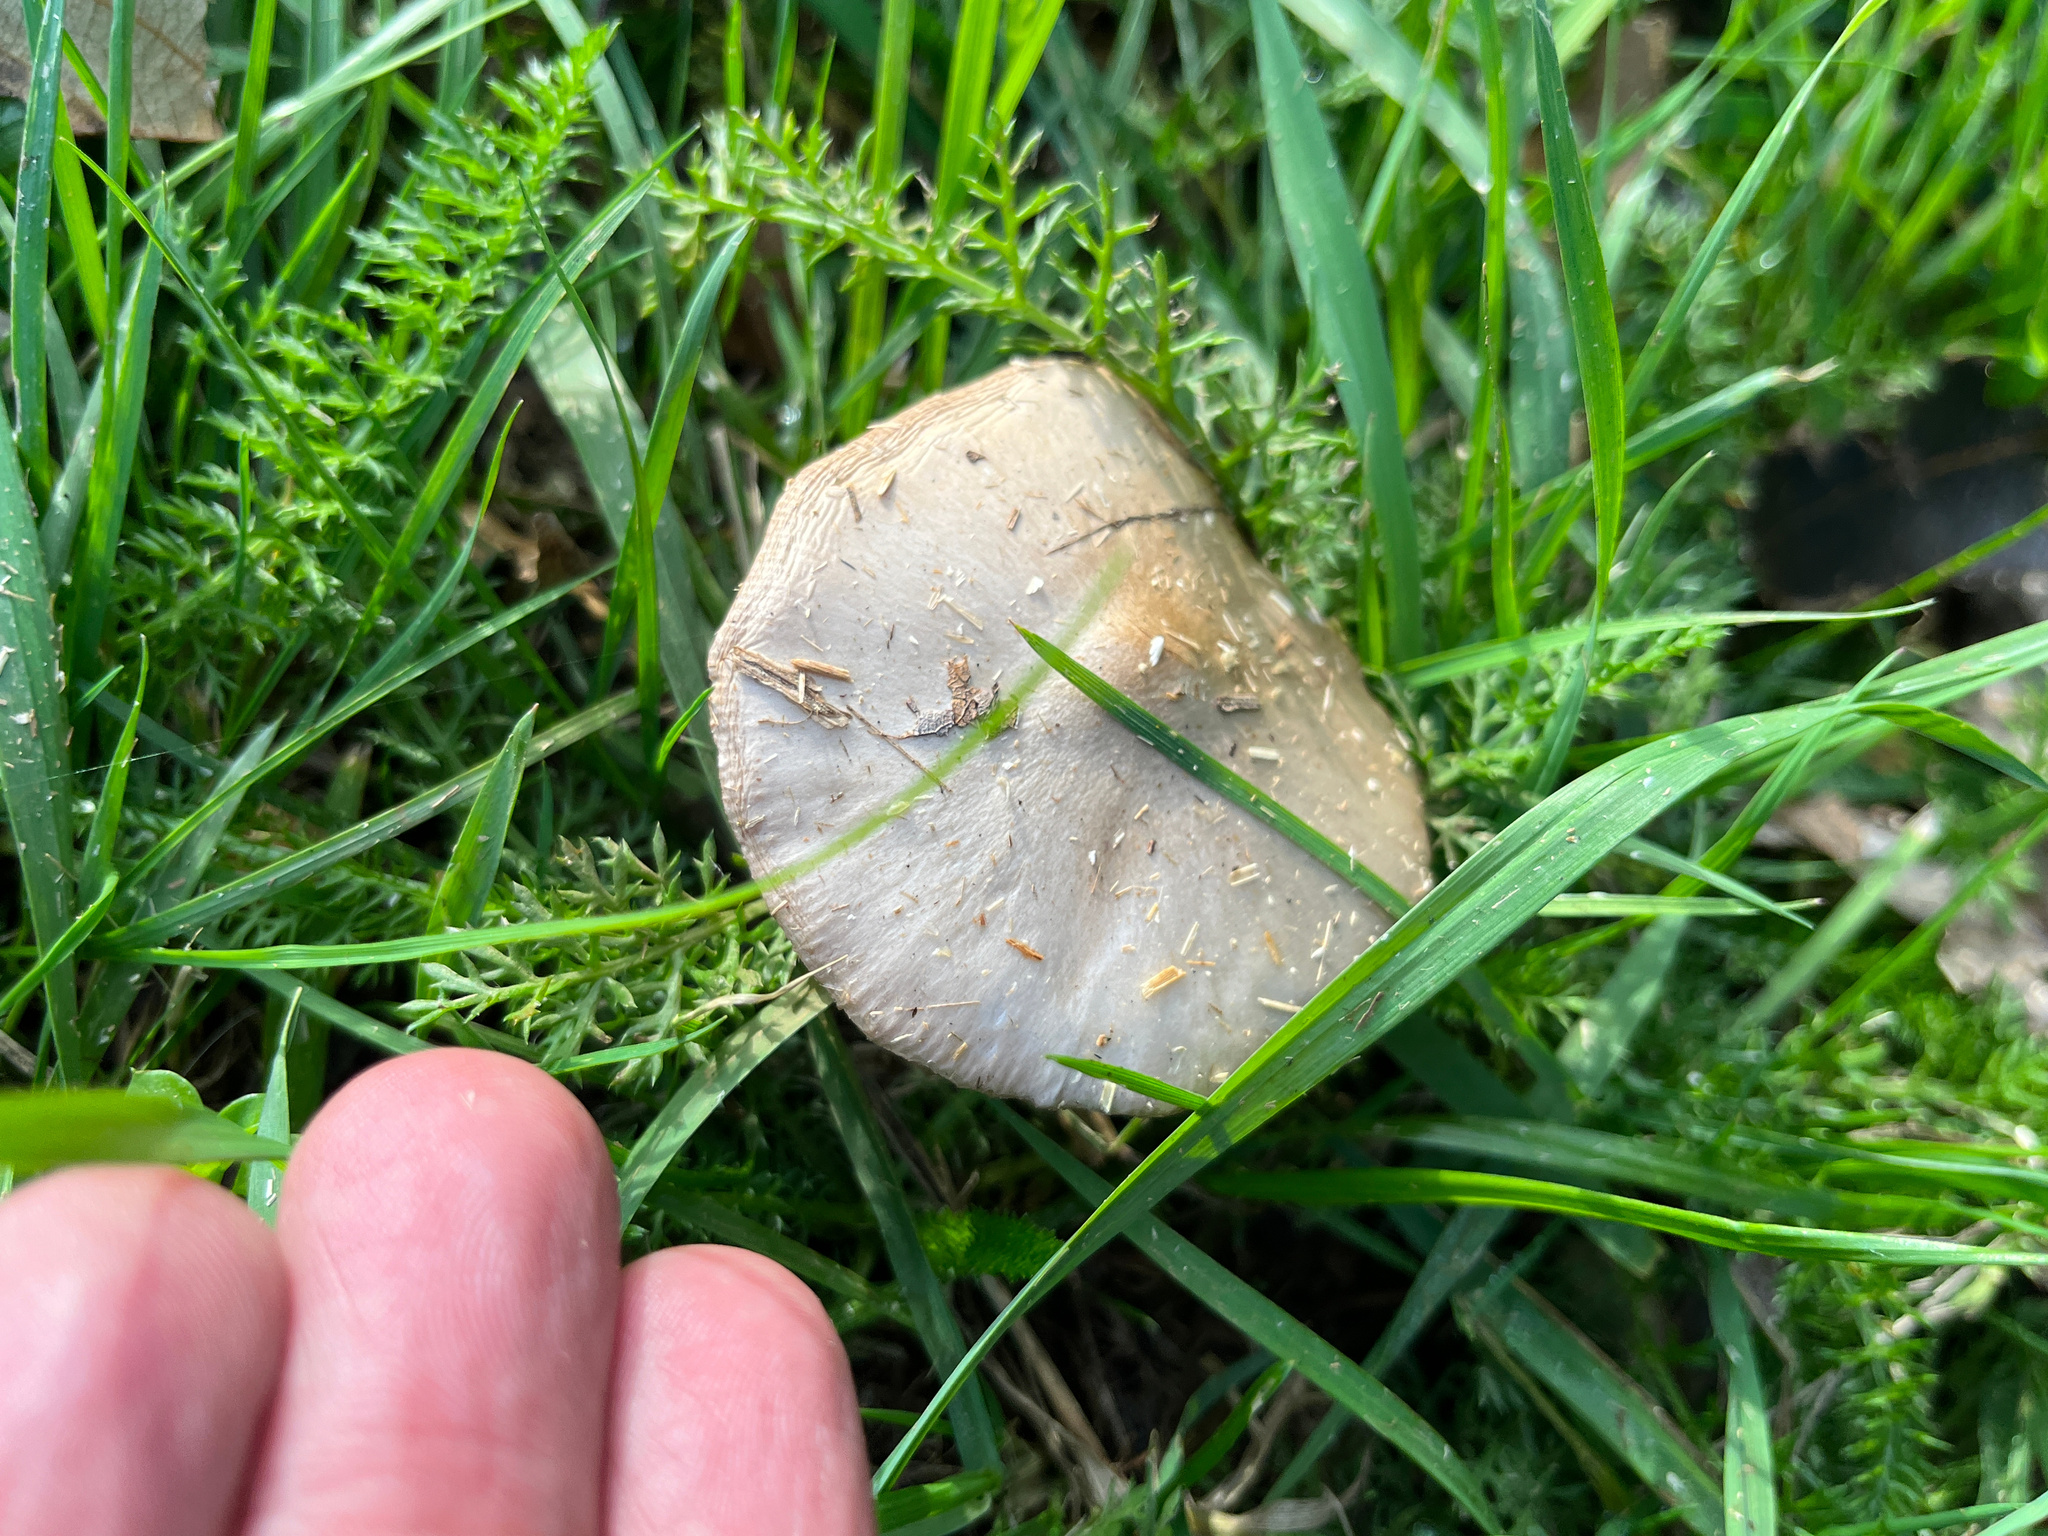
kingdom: Fungi
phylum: Basidiomycota
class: Agaricomycetes
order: Agaricales
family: Pluteaceae
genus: Volvopluteus
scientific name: Volvopluteus gloiocephalus
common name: Stubble rosegill
